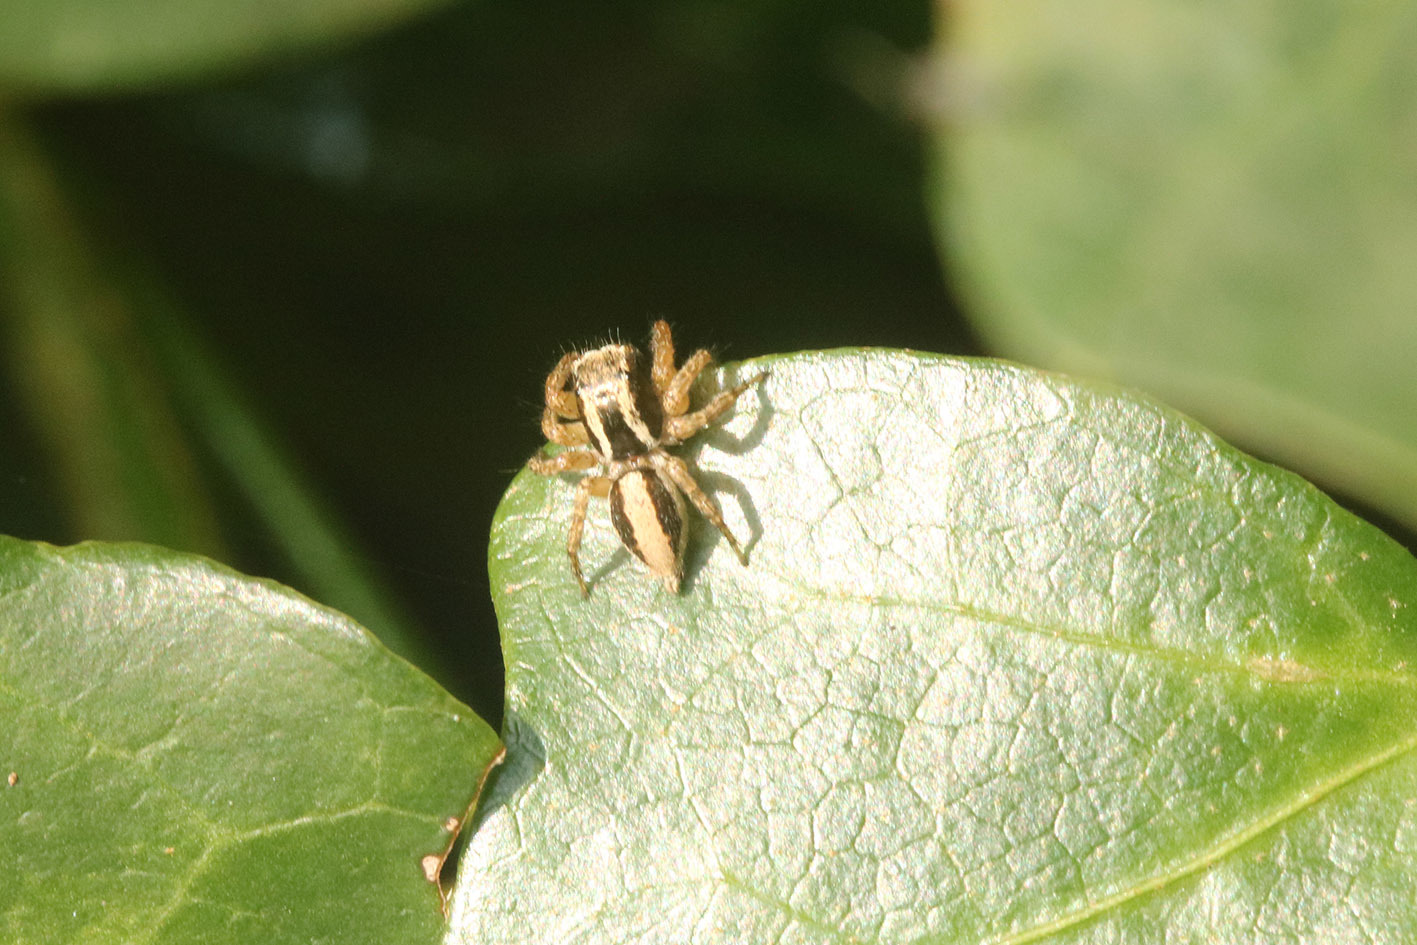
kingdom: Animalia
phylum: Arthropoda
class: Arachnida
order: Araneae
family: Salticidae
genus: Aphirape
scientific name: Aphirape
